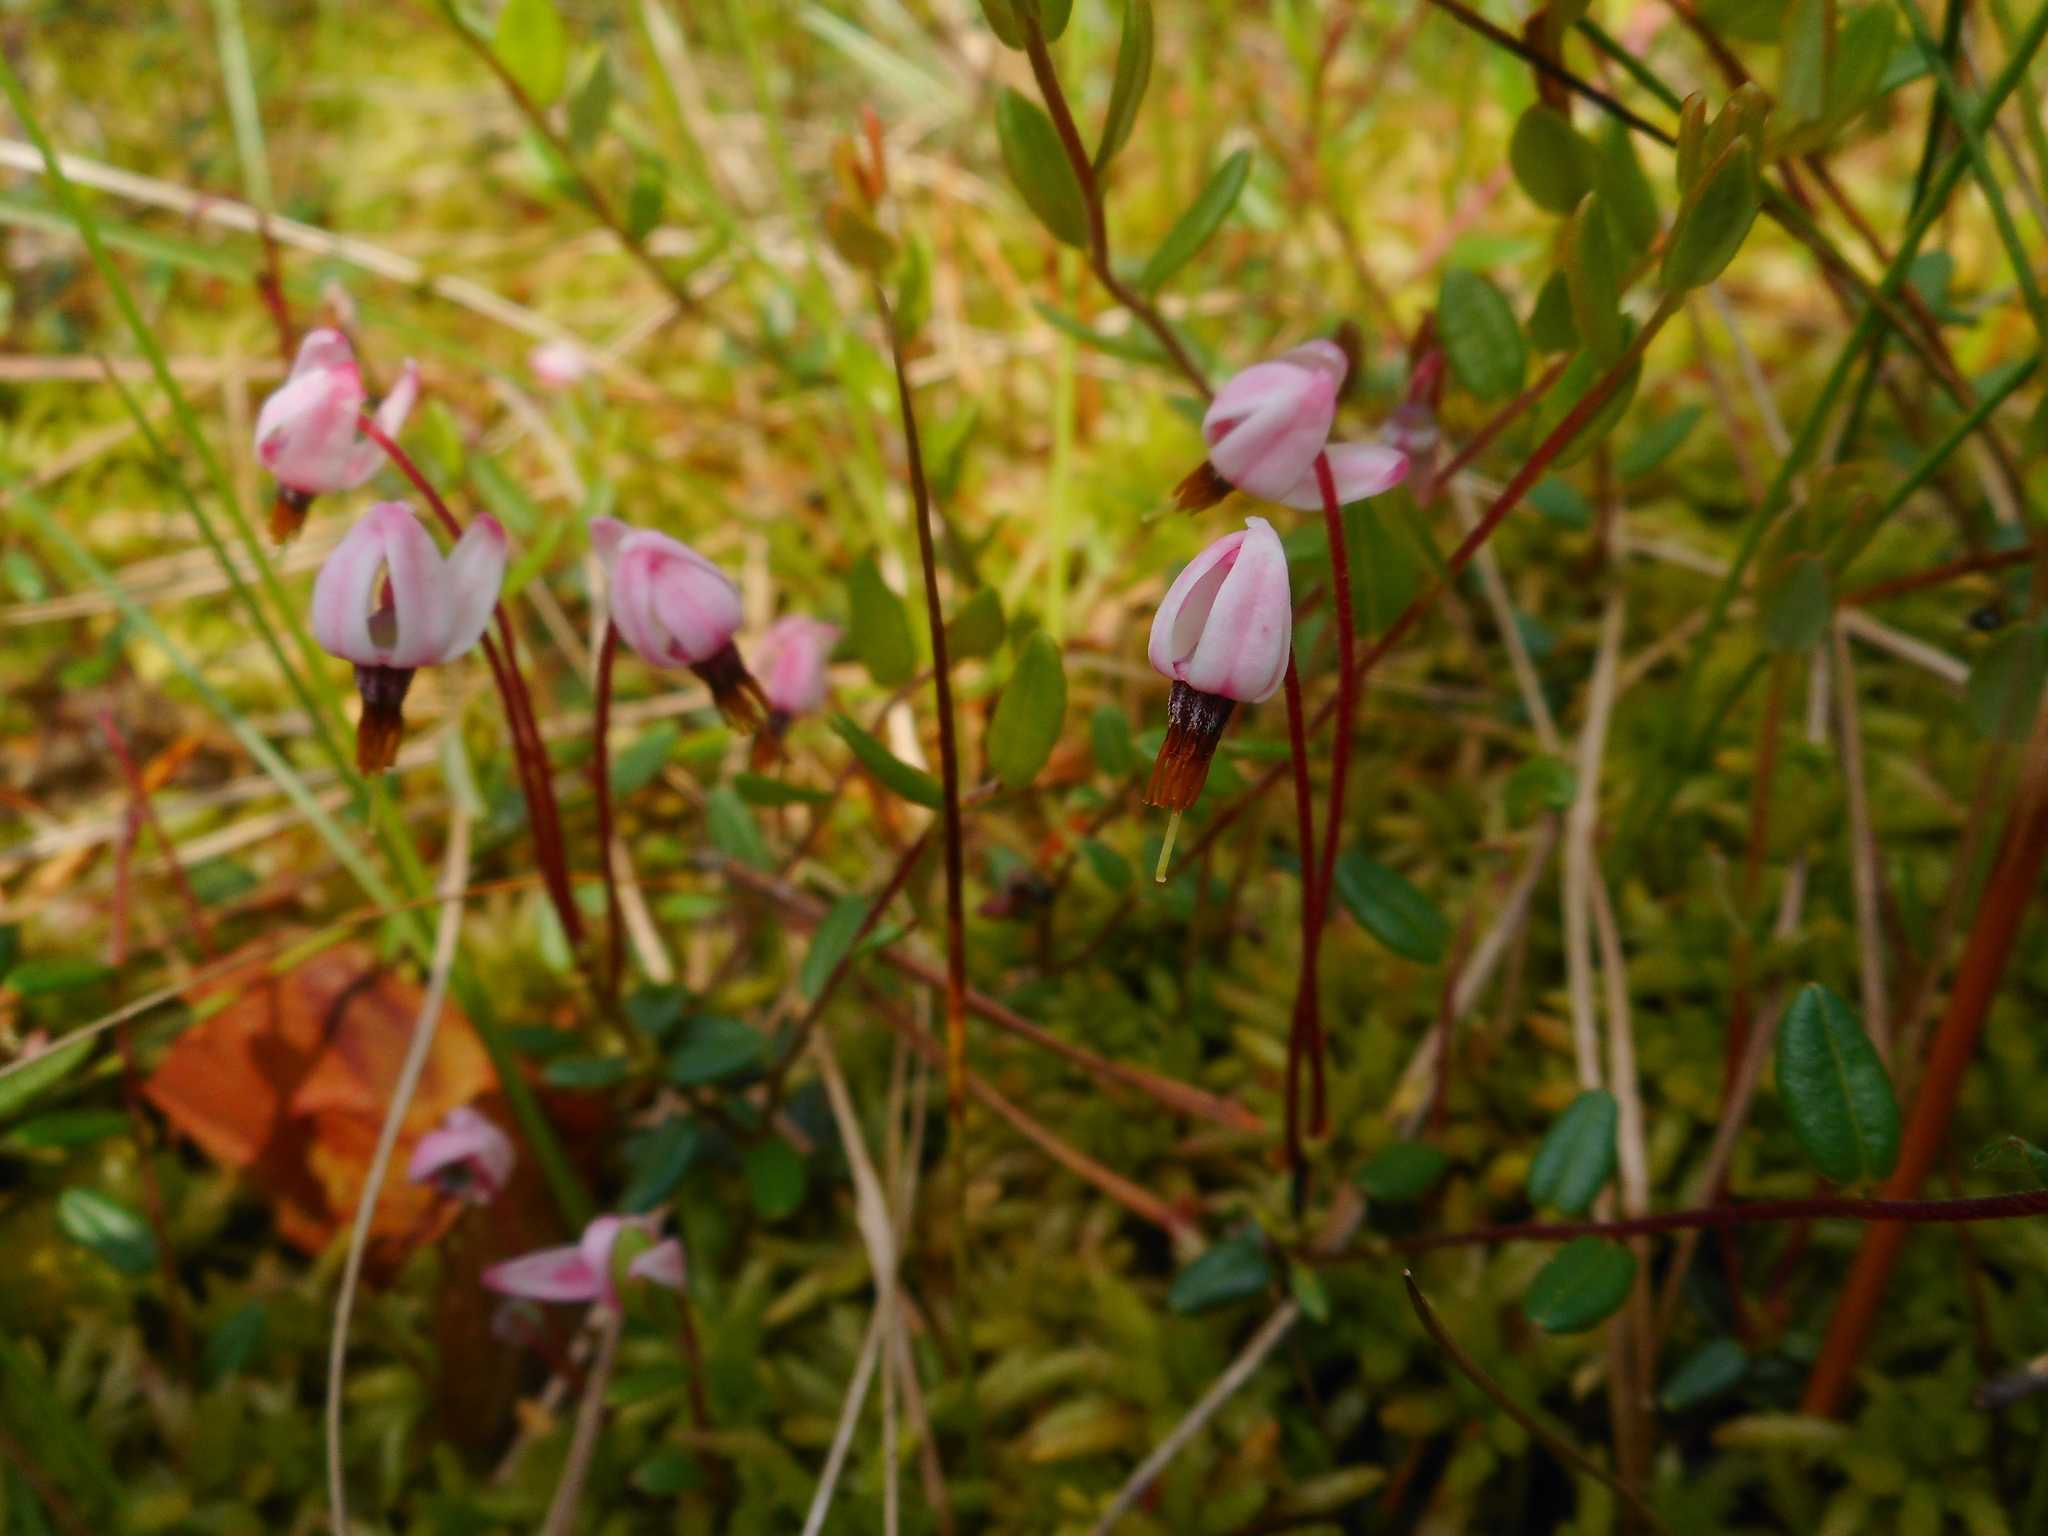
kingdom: Plantae
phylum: Tracheophyta
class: Magnoliopsida
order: Ericales
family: Ericaceae
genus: Vaccinium
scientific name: Vaccinium oxycoccos
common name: Cranberry
